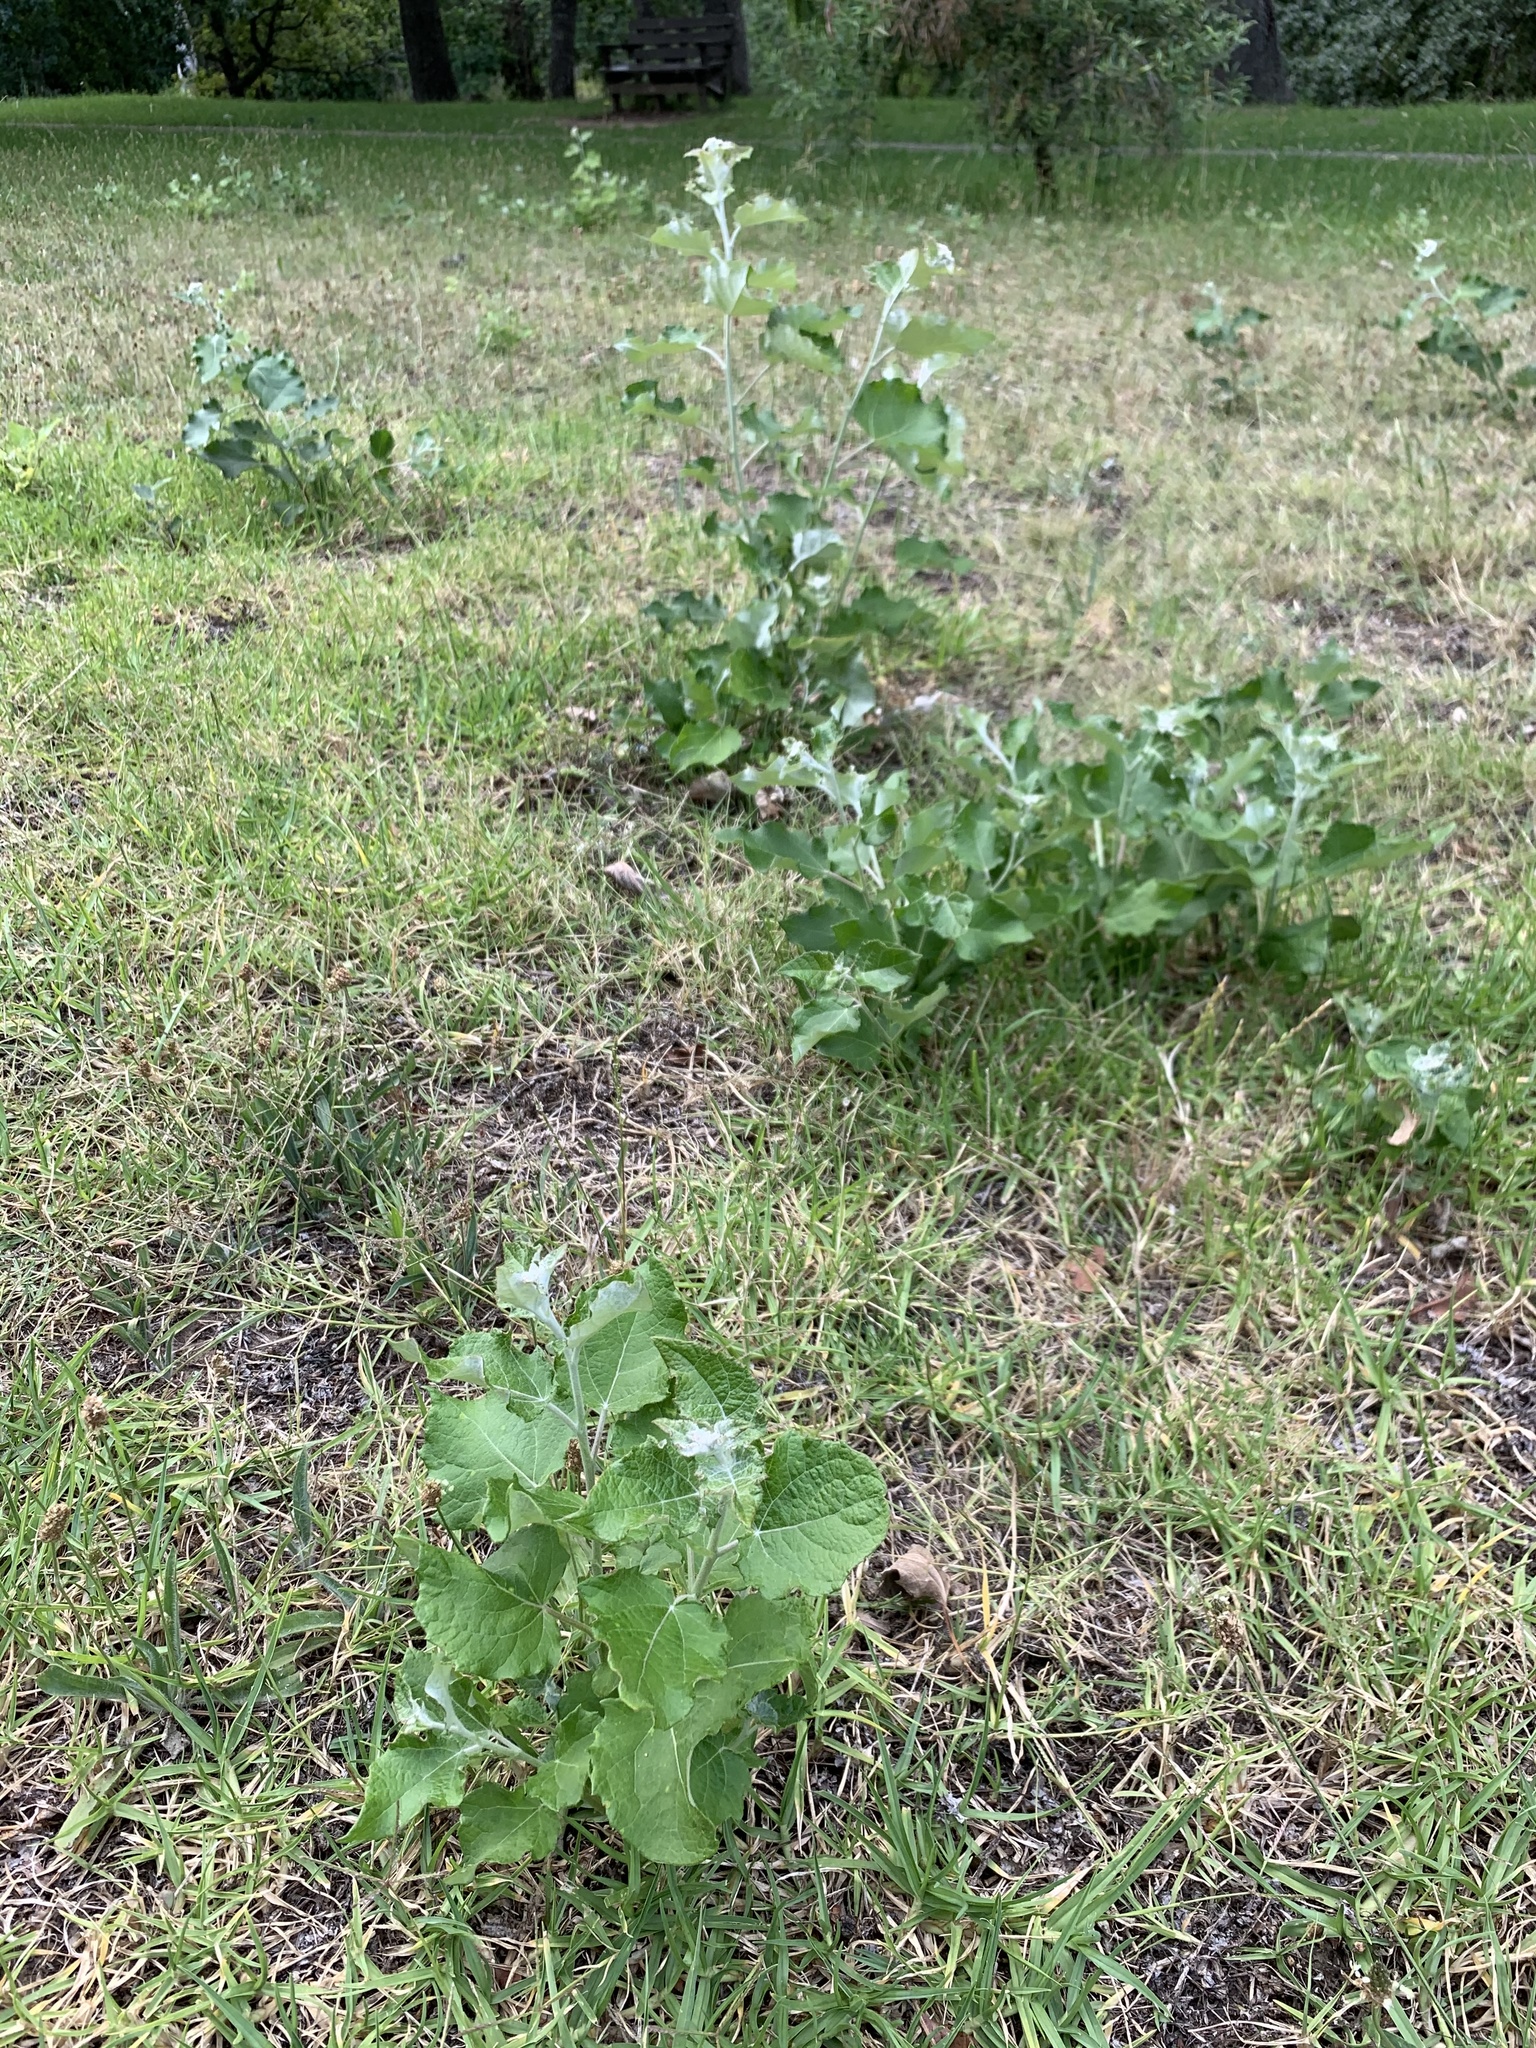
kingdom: Plantae
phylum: Tracheophyta
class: Magnoliopsida
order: Malpighiales
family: Salicaceae
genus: Populus
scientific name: Populus canescens
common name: Gray poplar
